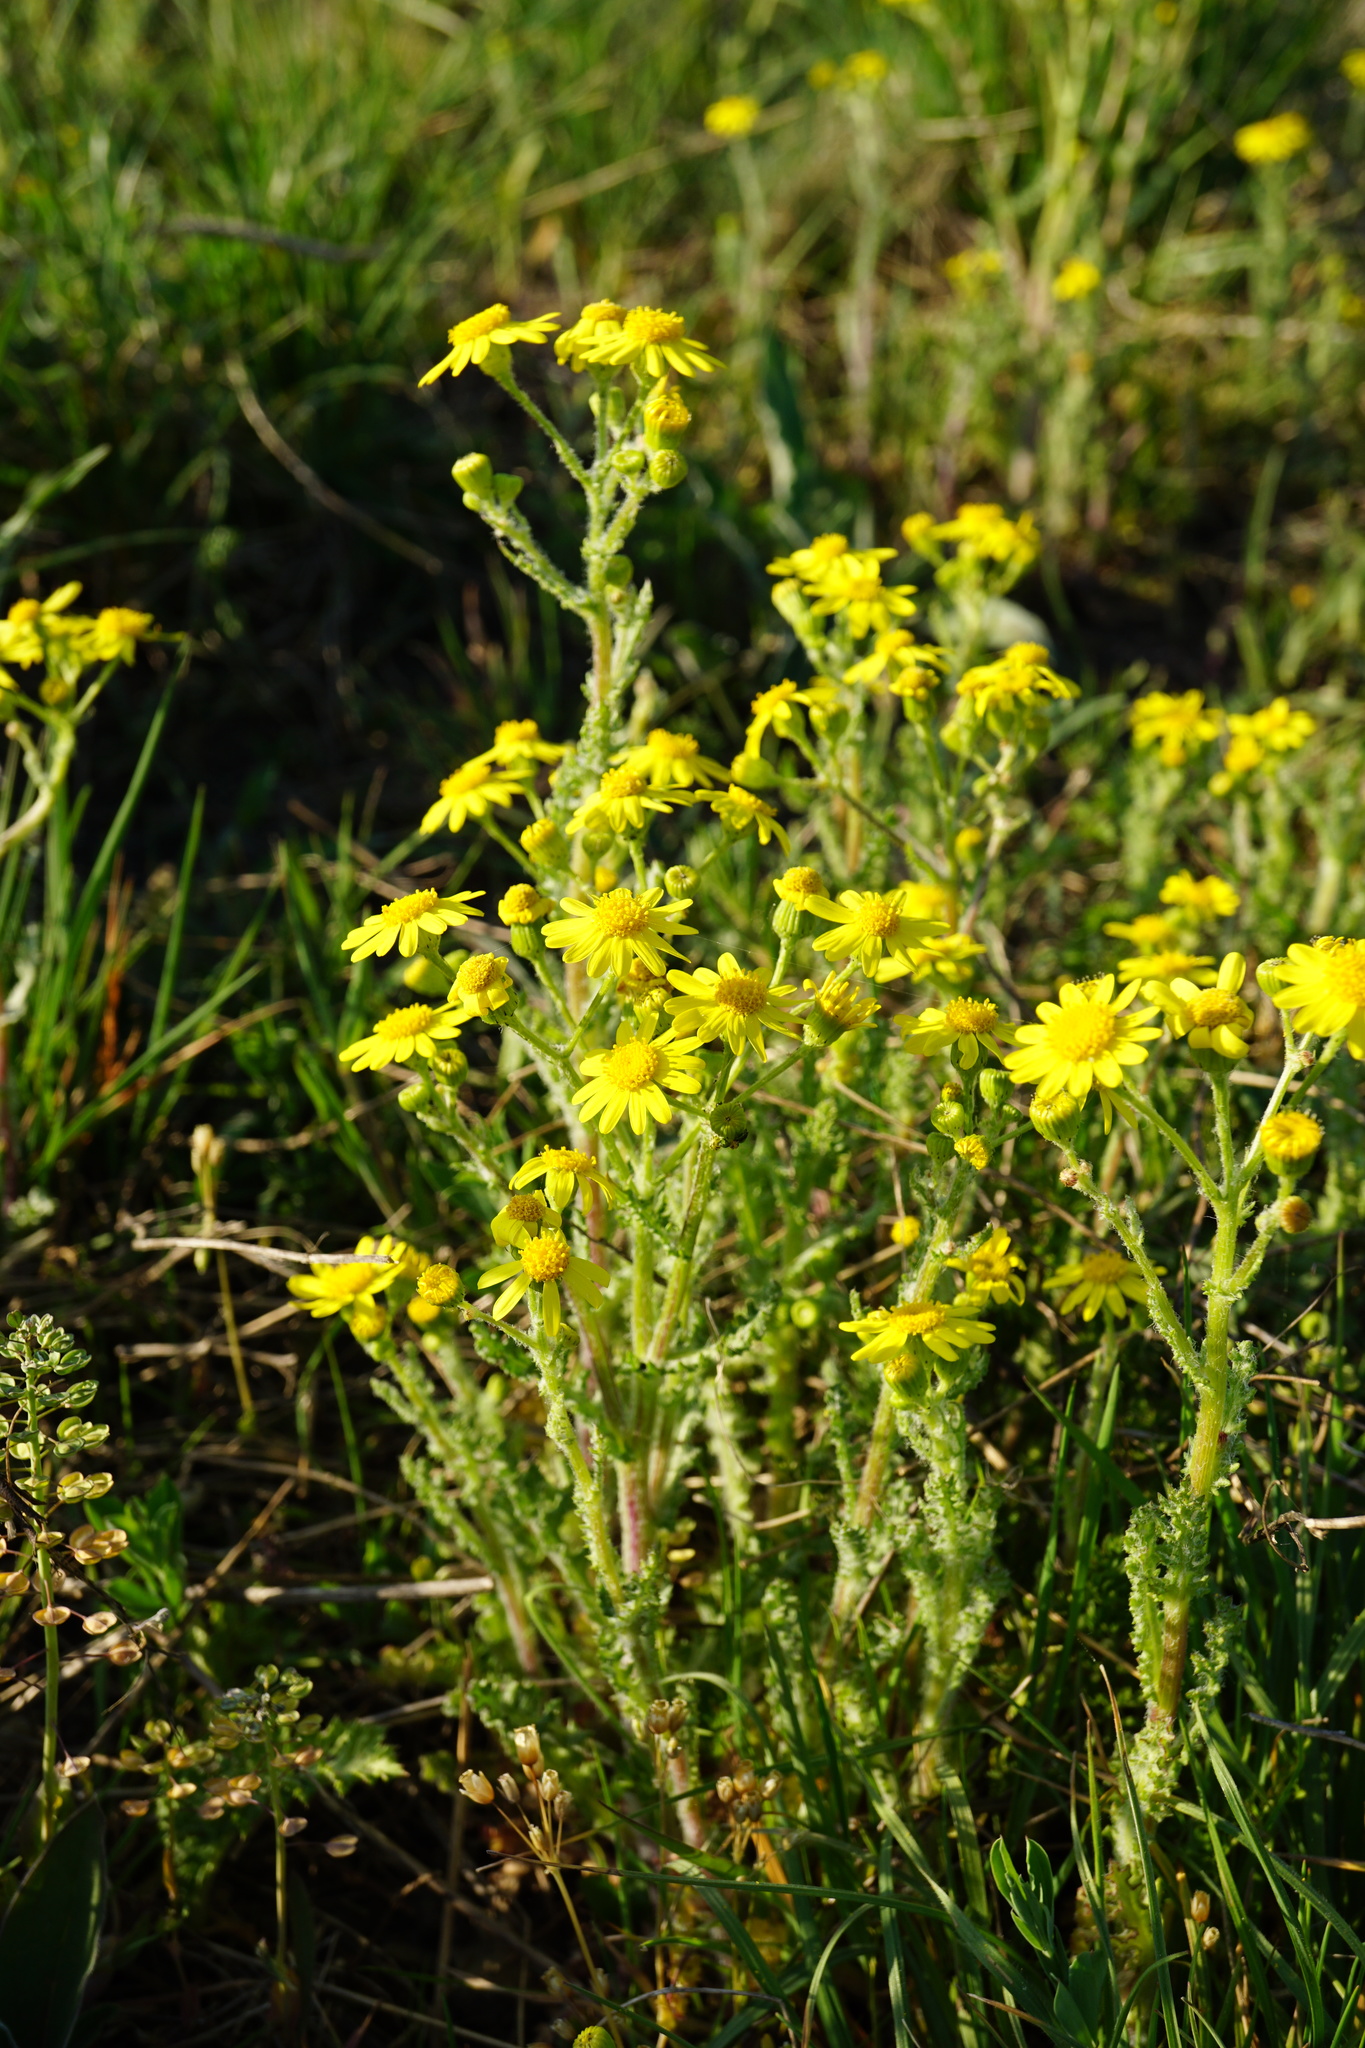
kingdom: Plantae
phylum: Tracheophyta
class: Magnoliopsida
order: Asterales
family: Asteraceae
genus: Senecio
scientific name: Senecio vernalis
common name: Eastern groundsel
